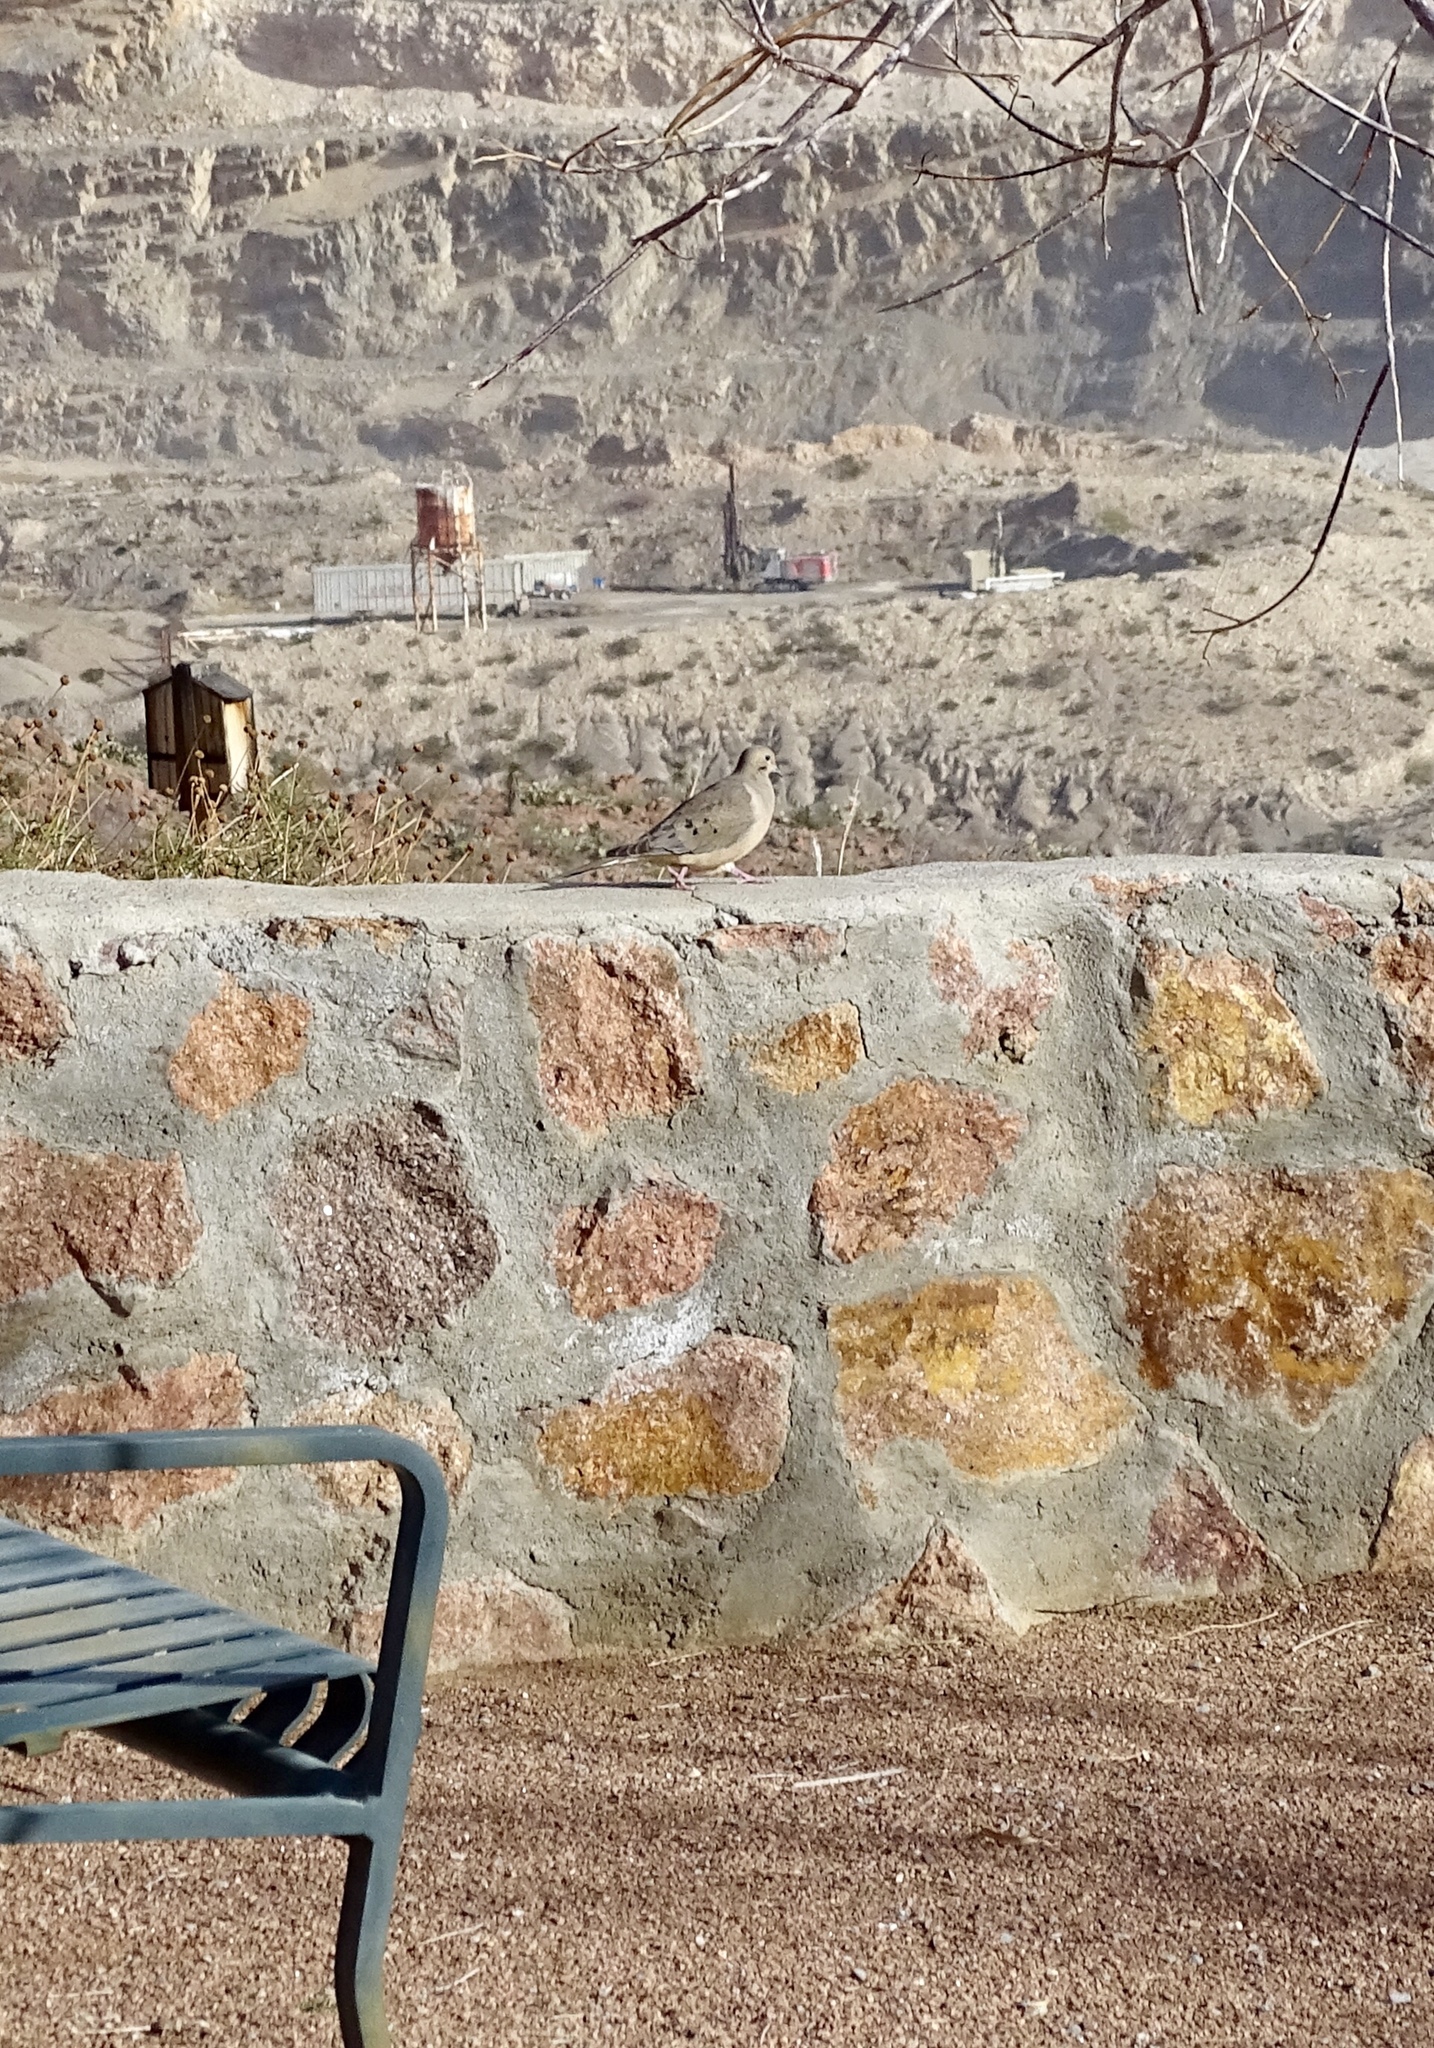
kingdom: Animalia
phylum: Chordata
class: Aves
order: Columbiformes
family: Columbidae
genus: Zenaida
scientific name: Zenaida macroura
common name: Mourning dove
